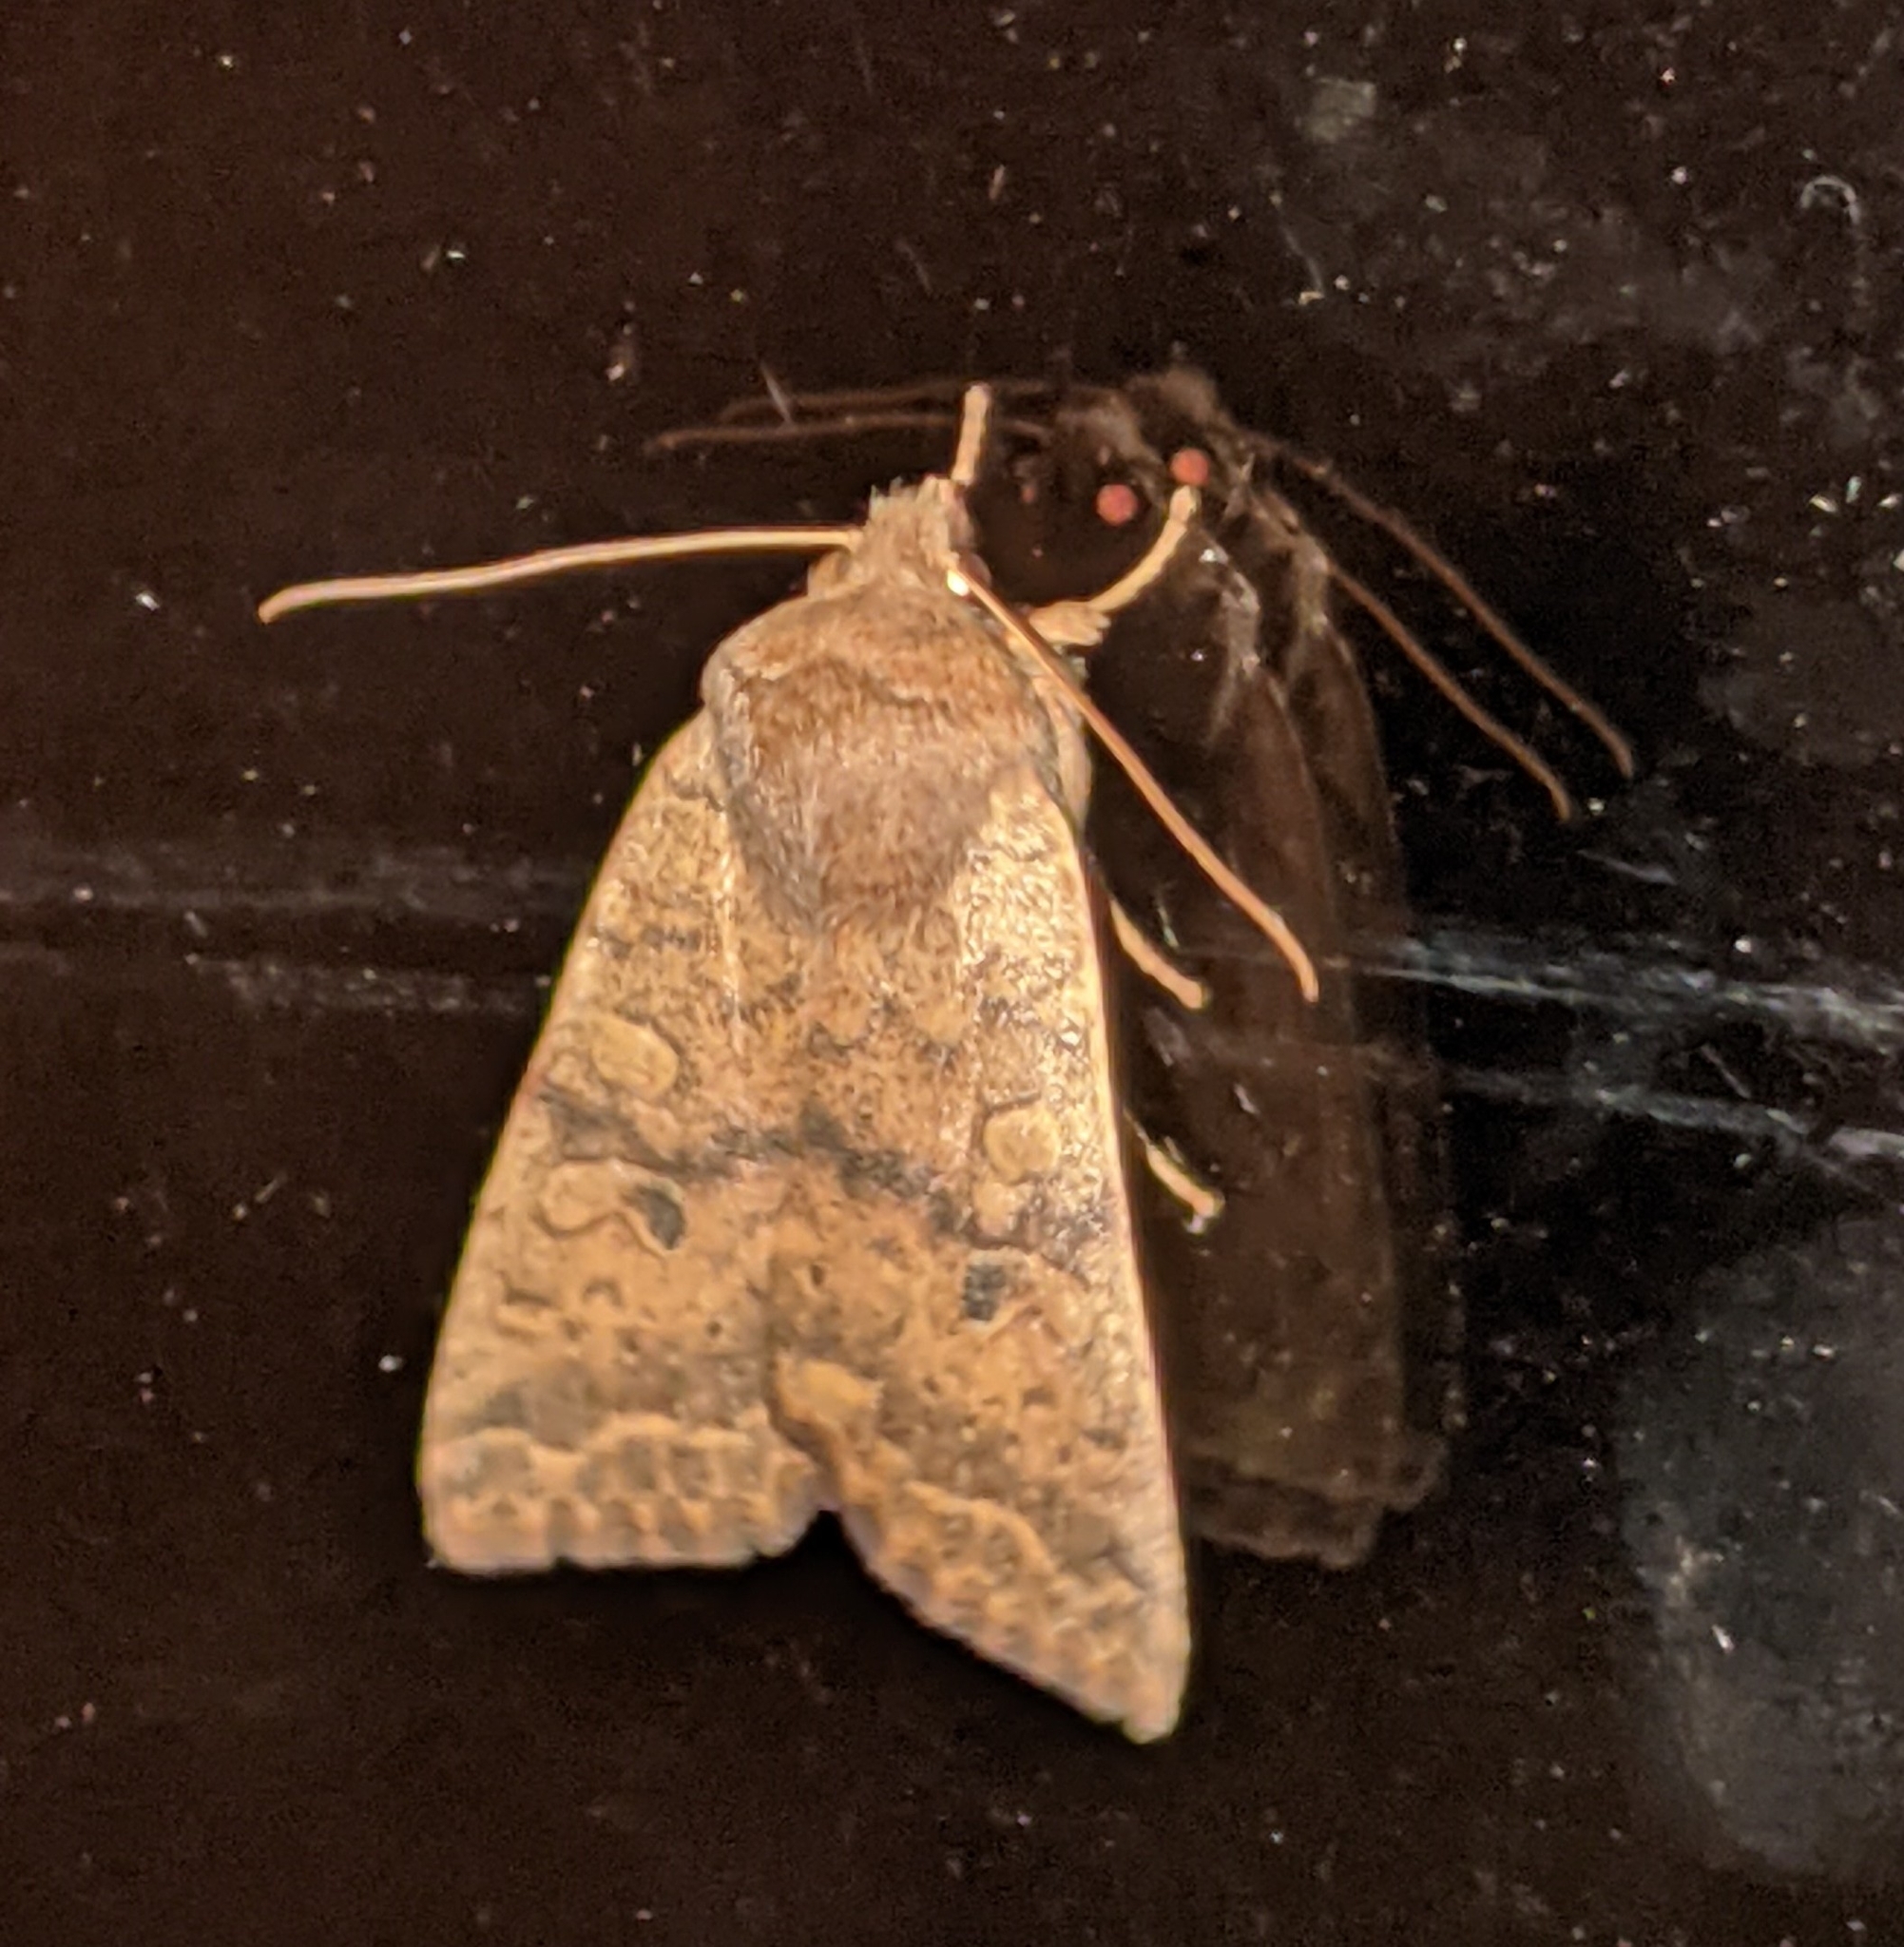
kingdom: Animalia
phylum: Arthropoda
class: Insecta
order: Lepidoptera
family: Noctuidae
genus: Agrochola
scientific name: Agrochola bicolorago
